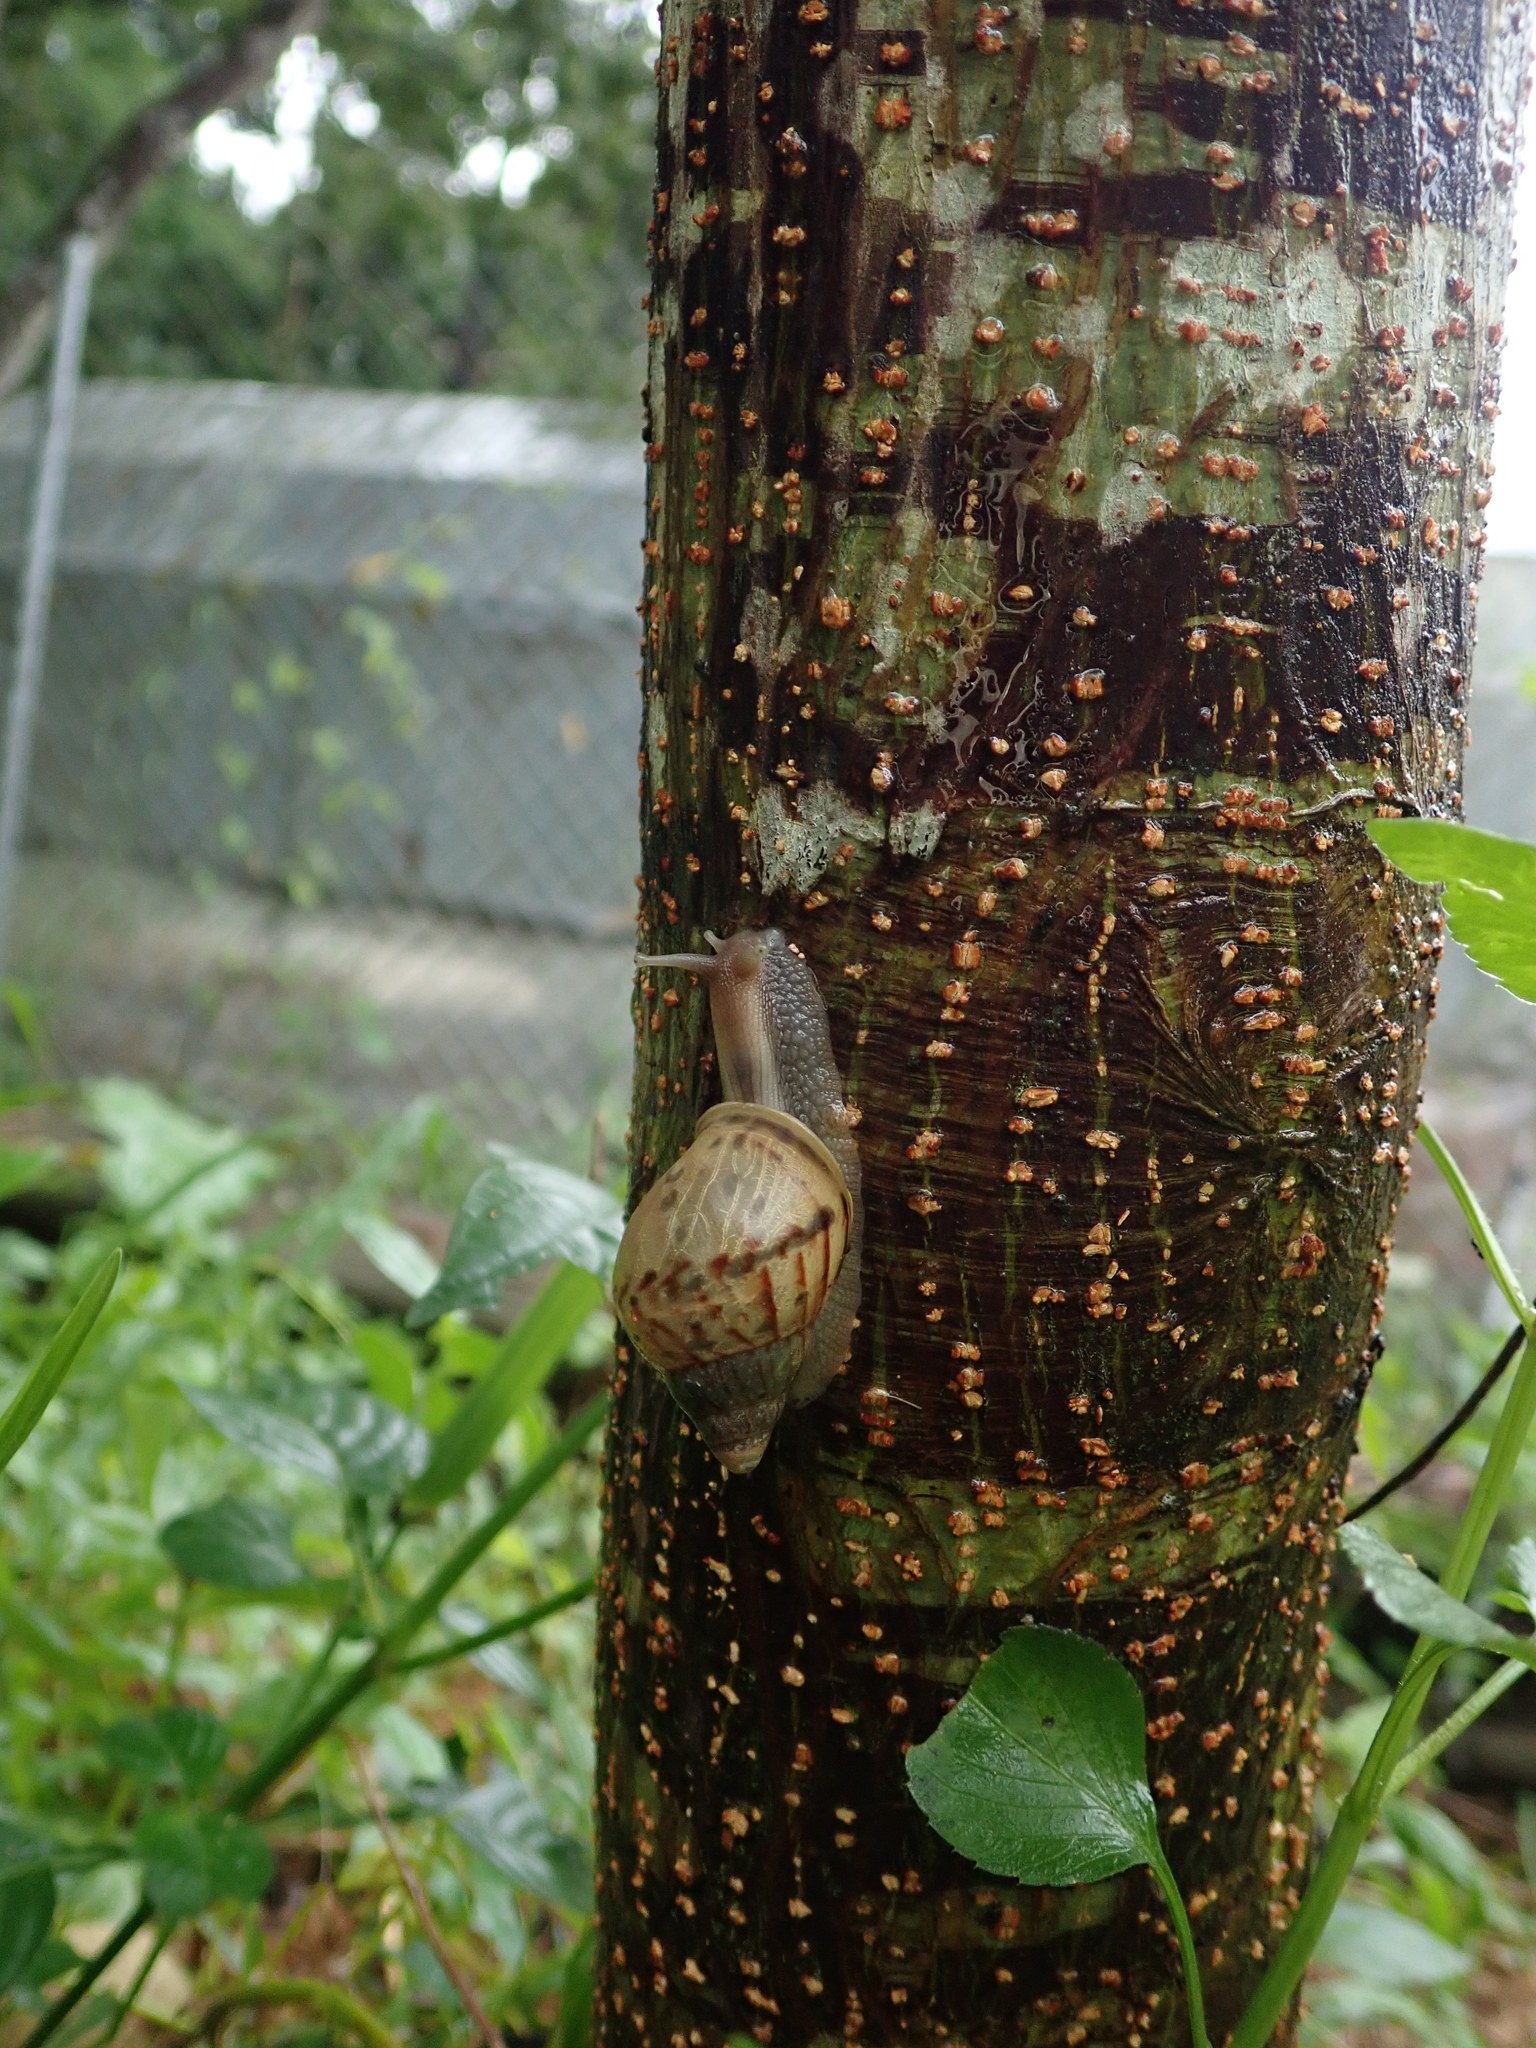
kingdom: Animalia
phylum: Mollusca
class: Gastropoda
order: Stylommatophora
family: Achatinidae
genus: Lissachatina
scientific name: Lissachatina fulica
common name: Giant african snail
